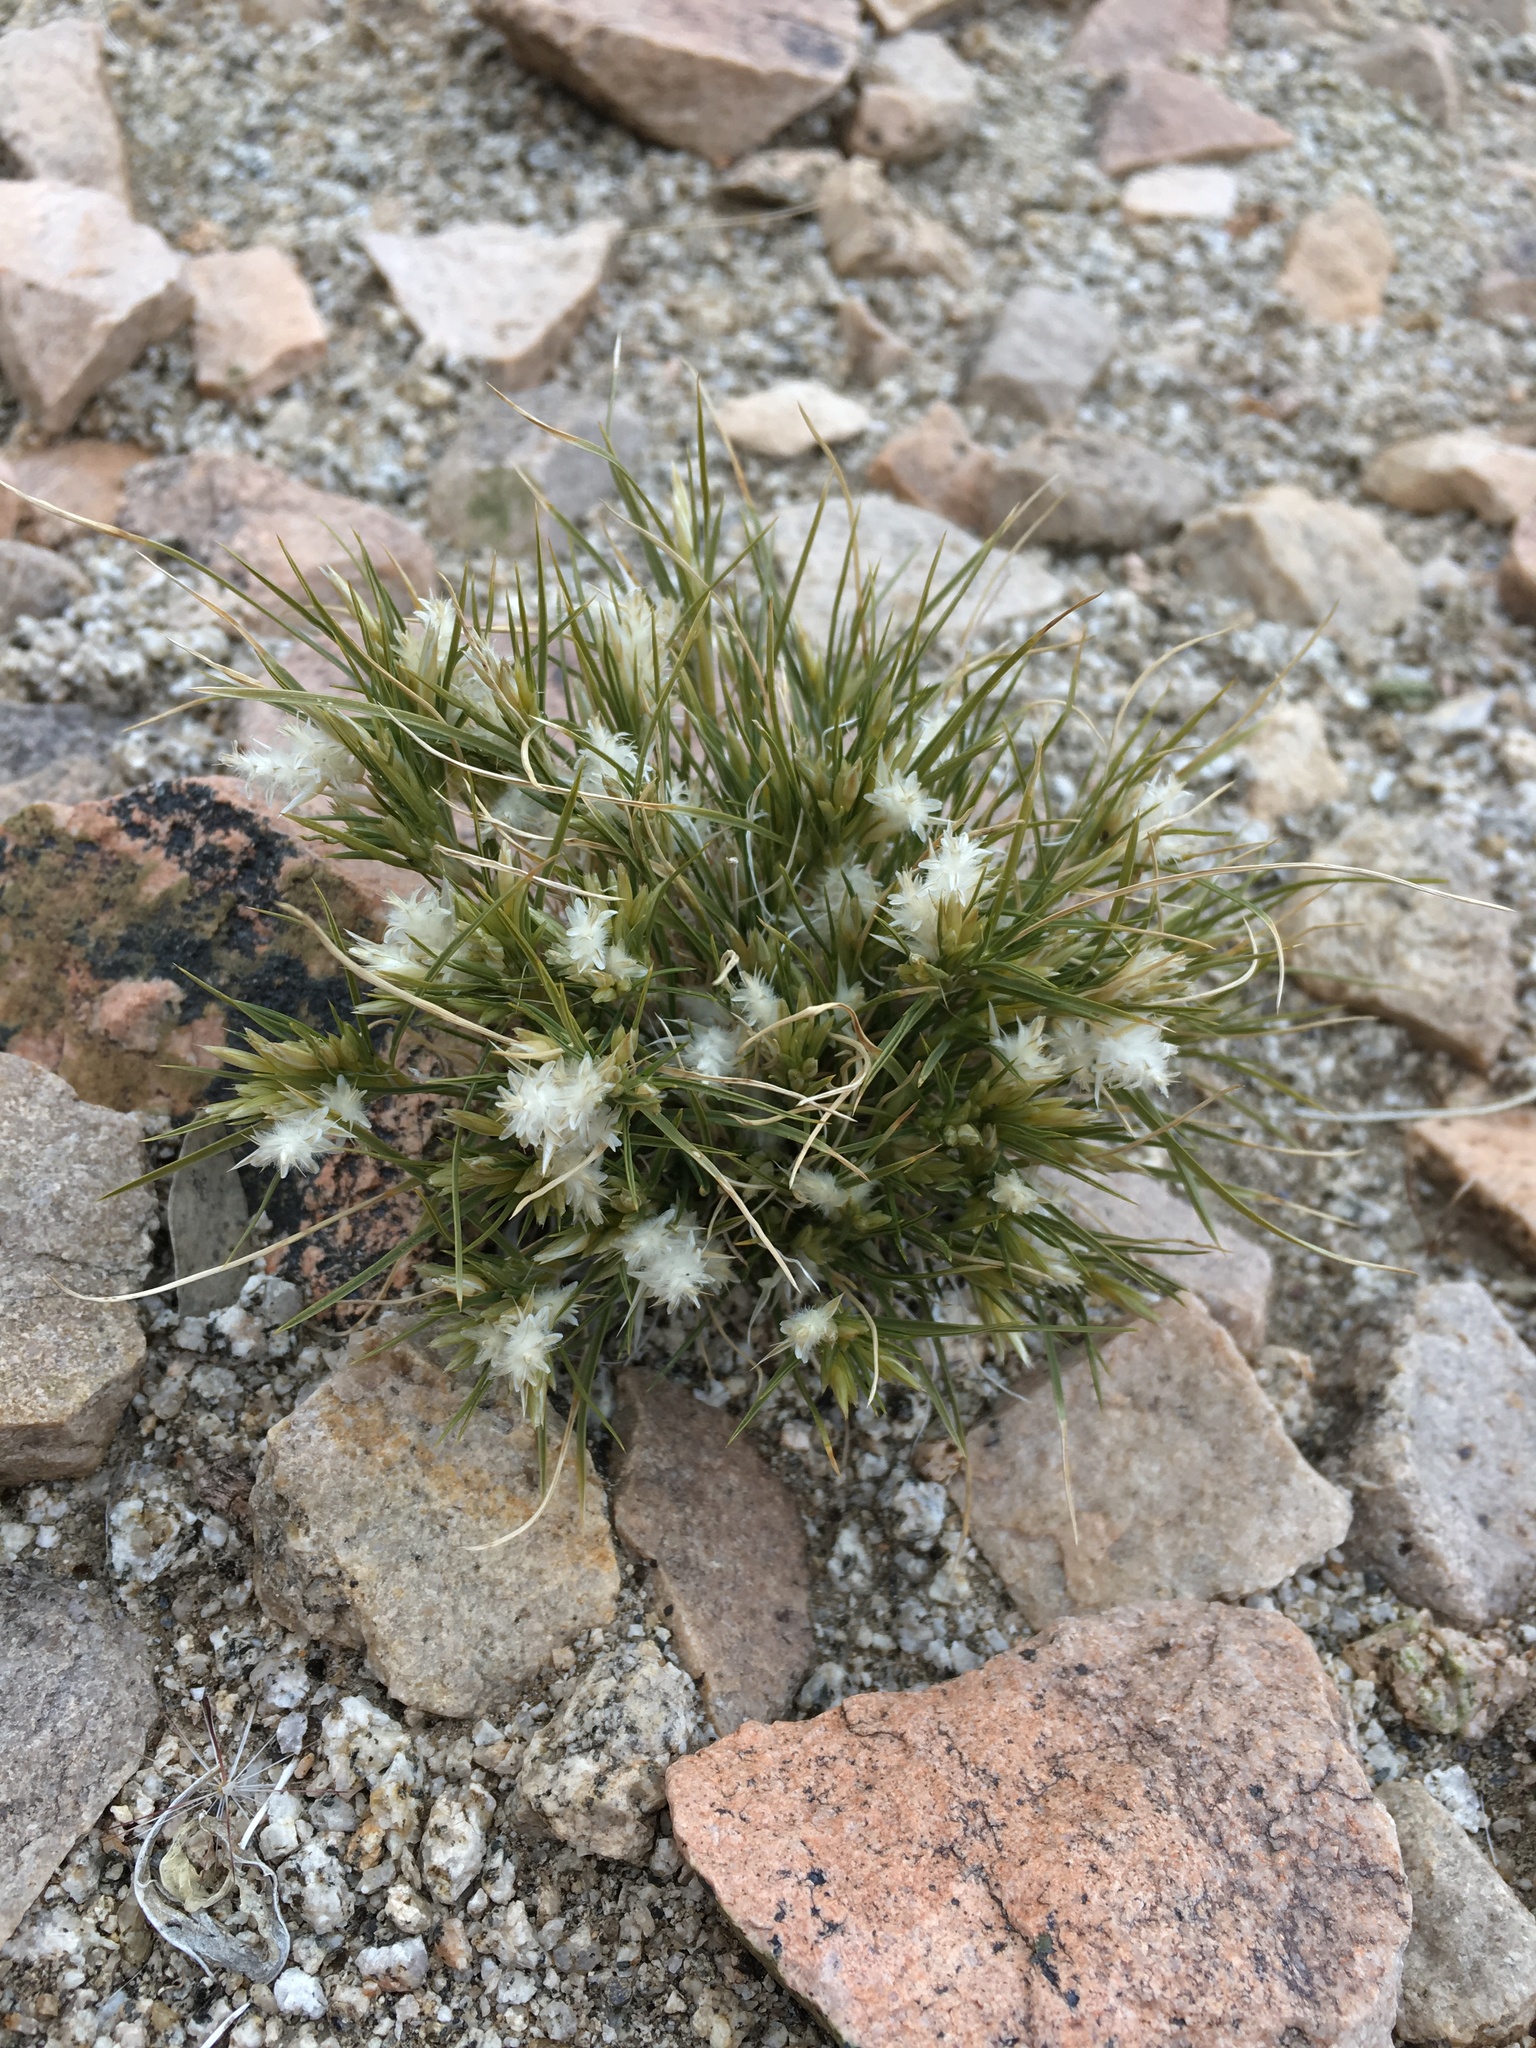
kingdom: Plantae
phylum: Tracheophyta
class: Liliopsida
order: Poales
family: Poaceae
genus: Dasyochloa
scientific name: Dasyochloa pulchella
